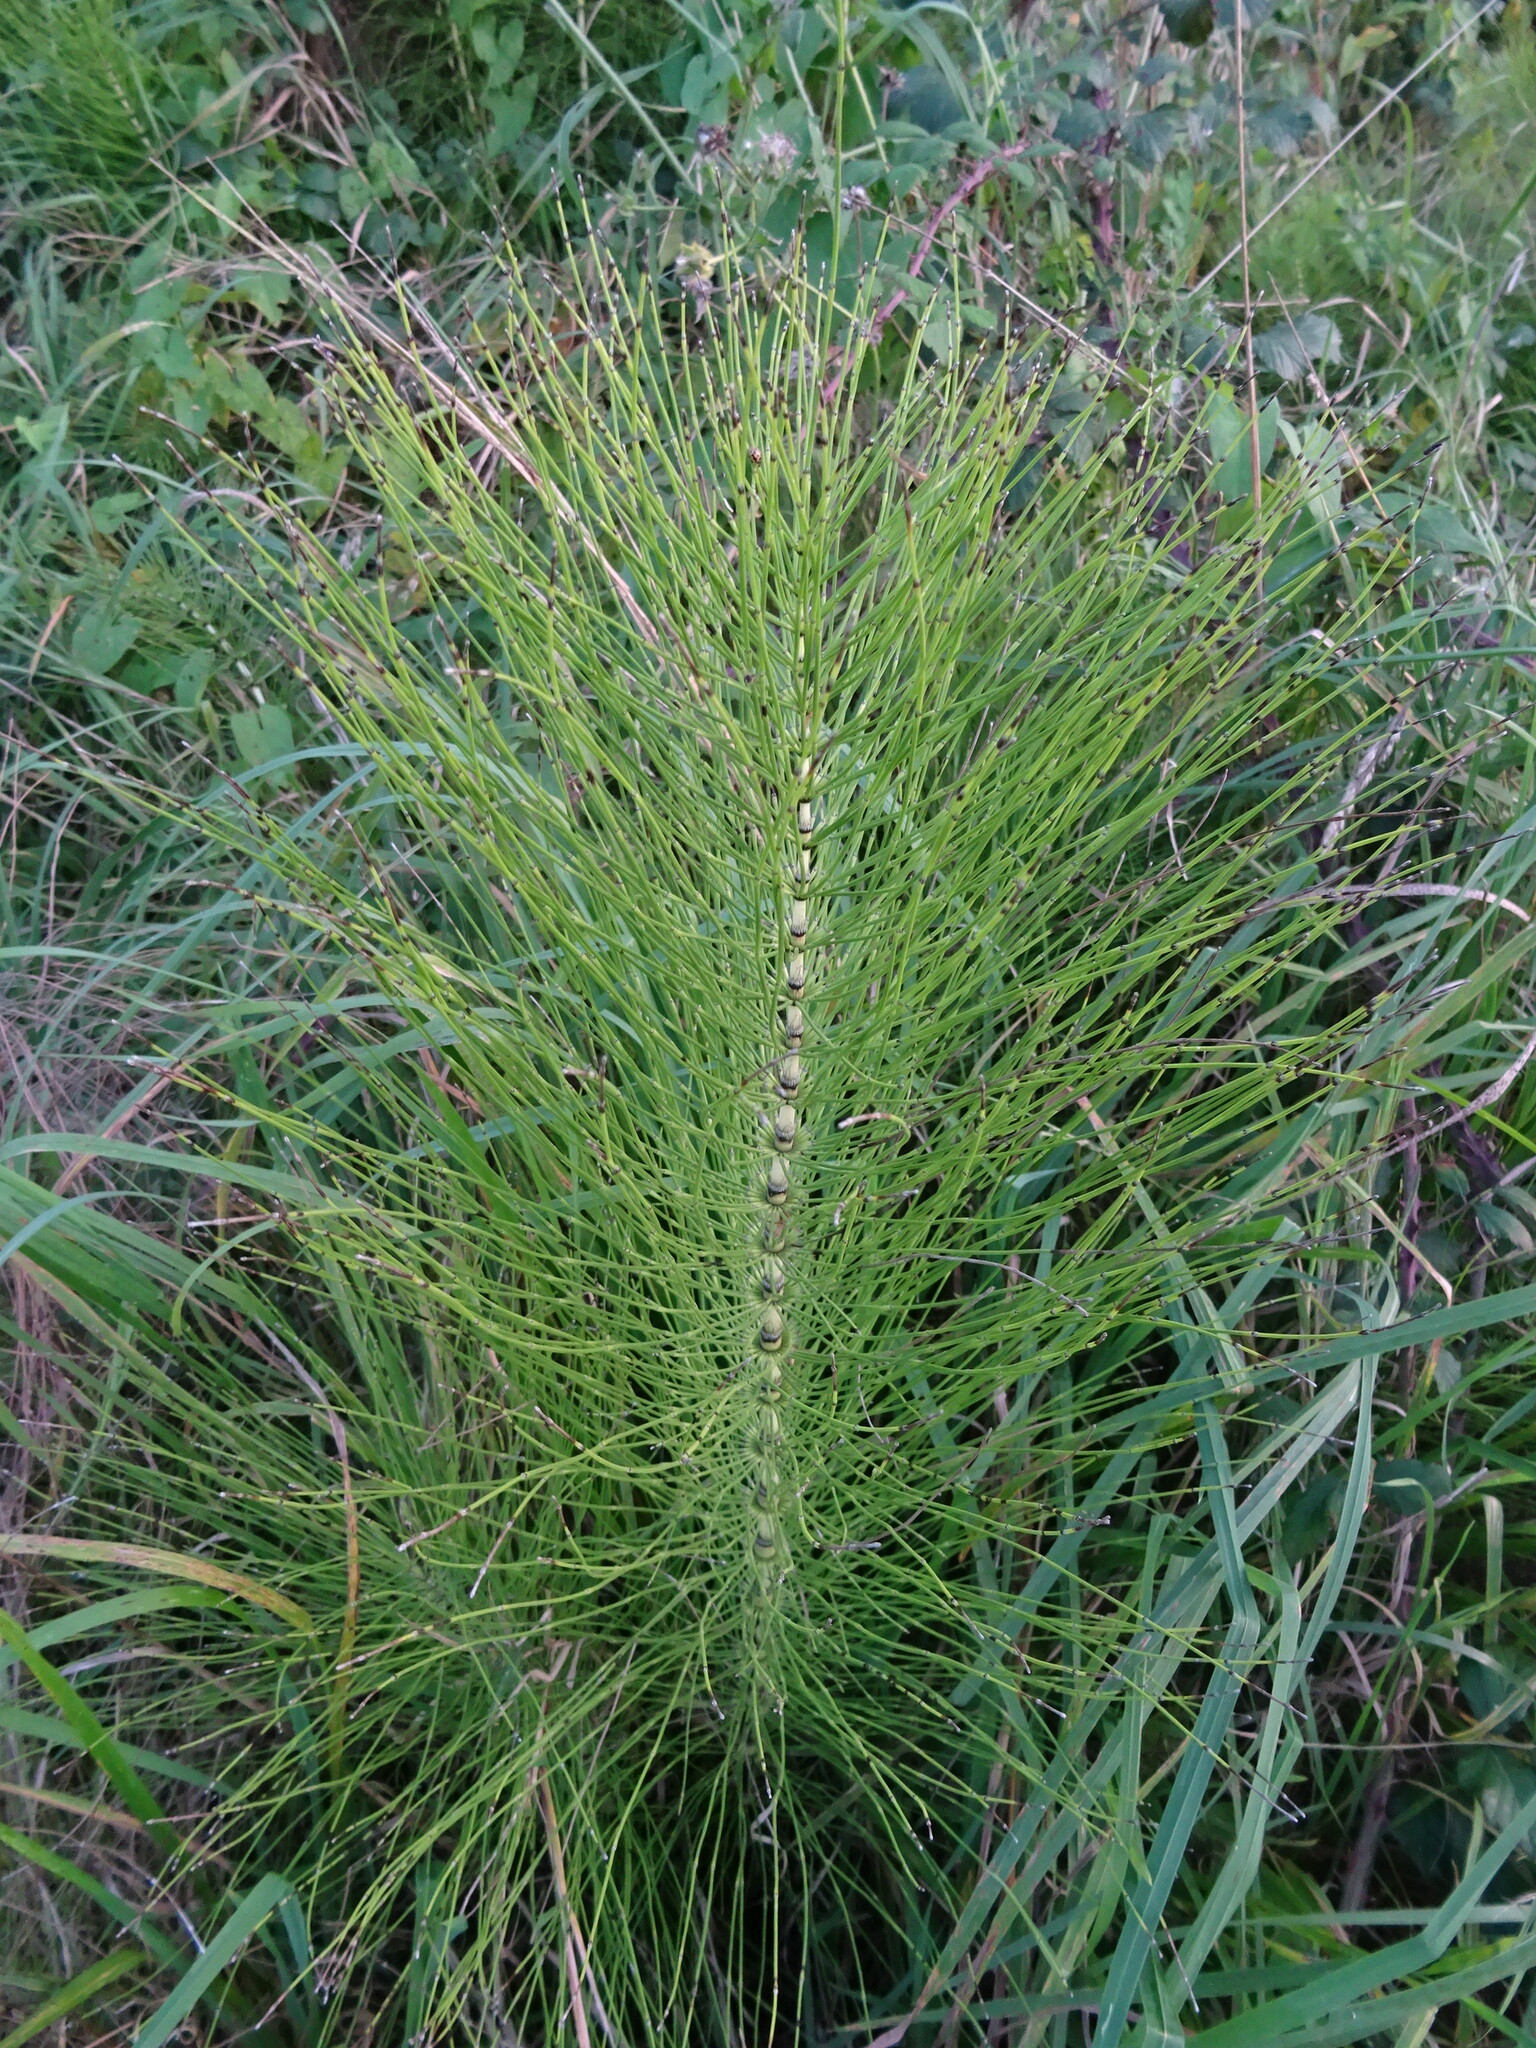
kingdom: Plantae
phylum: Tracheophyta
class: Polypodiopsida
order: Equisetales
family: Equisetaceae
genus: Equisetum
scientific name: Equisetum telmateia
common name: Great horsetail
